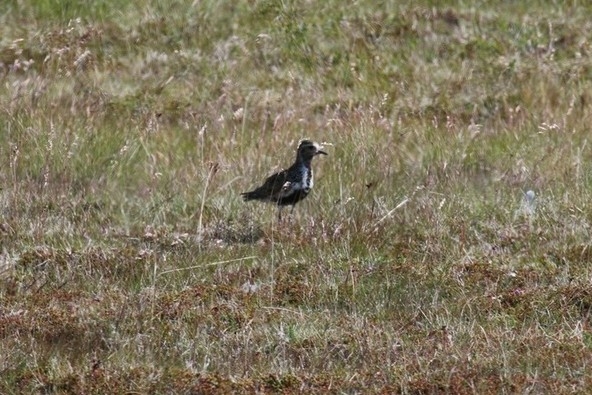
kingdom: Animalia
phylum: Chordata
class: Aves
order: Charadriiformes
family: Charadriidae
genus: Pluvialis
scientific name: Pluvialis apricaria
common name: European golden plover
